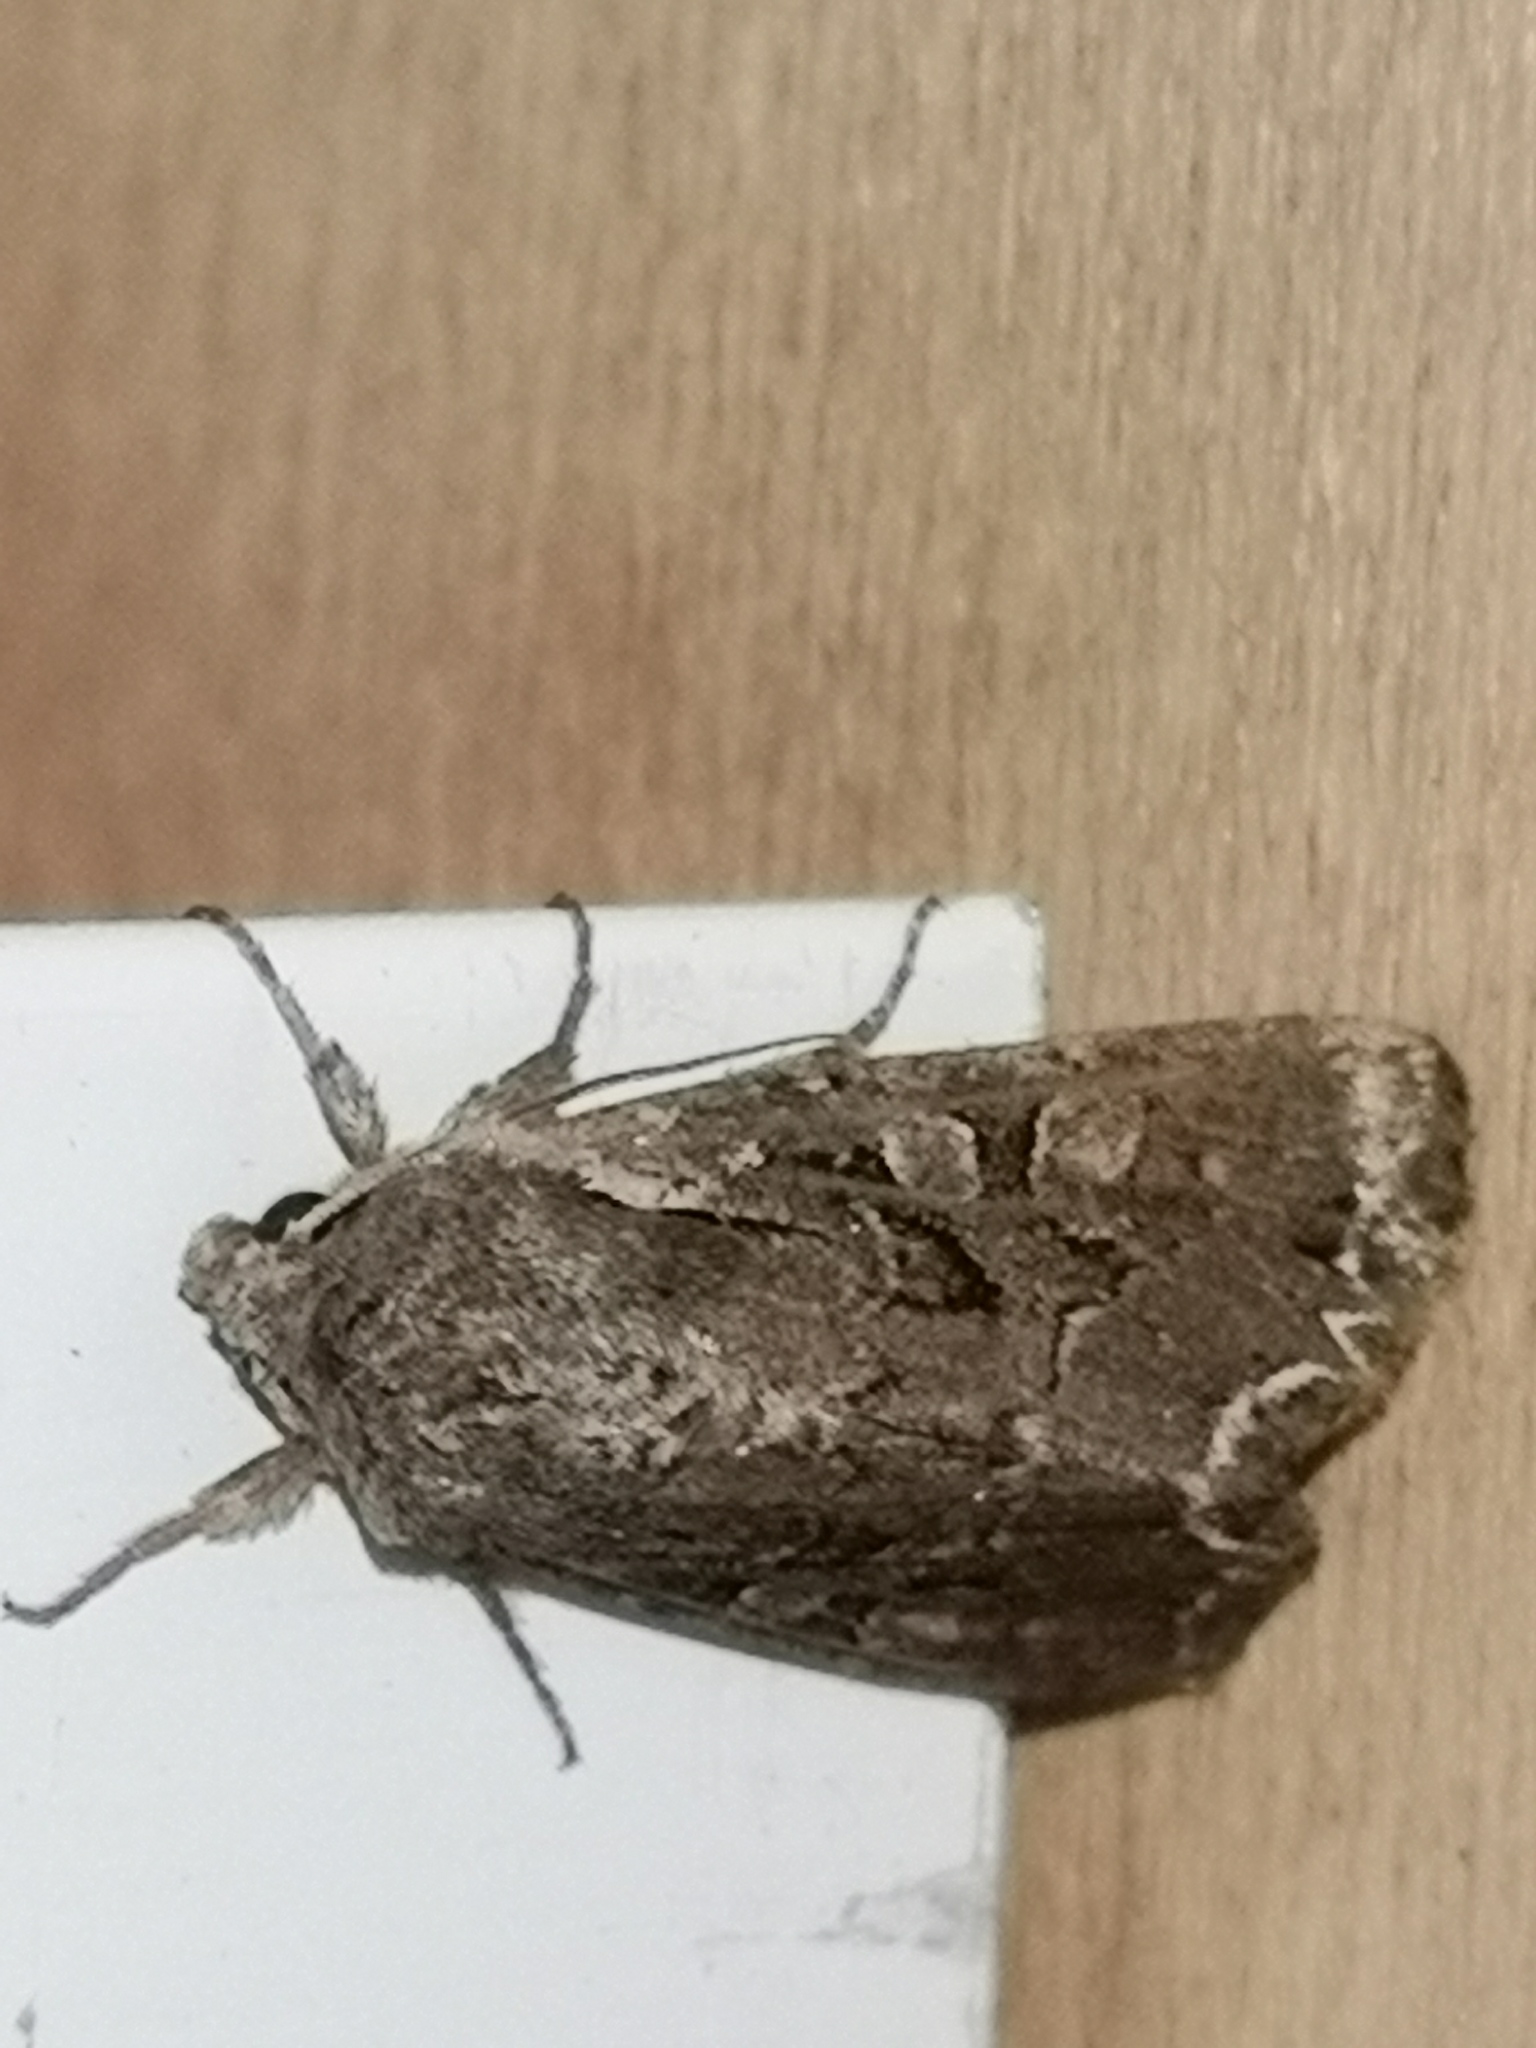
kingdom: Animalia
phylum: Arthropoda
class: Insecta
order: Lepidoptera
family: Noctuidae
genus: Lacanobia
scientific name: Lacanobia suasa
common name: Dog's tooth
